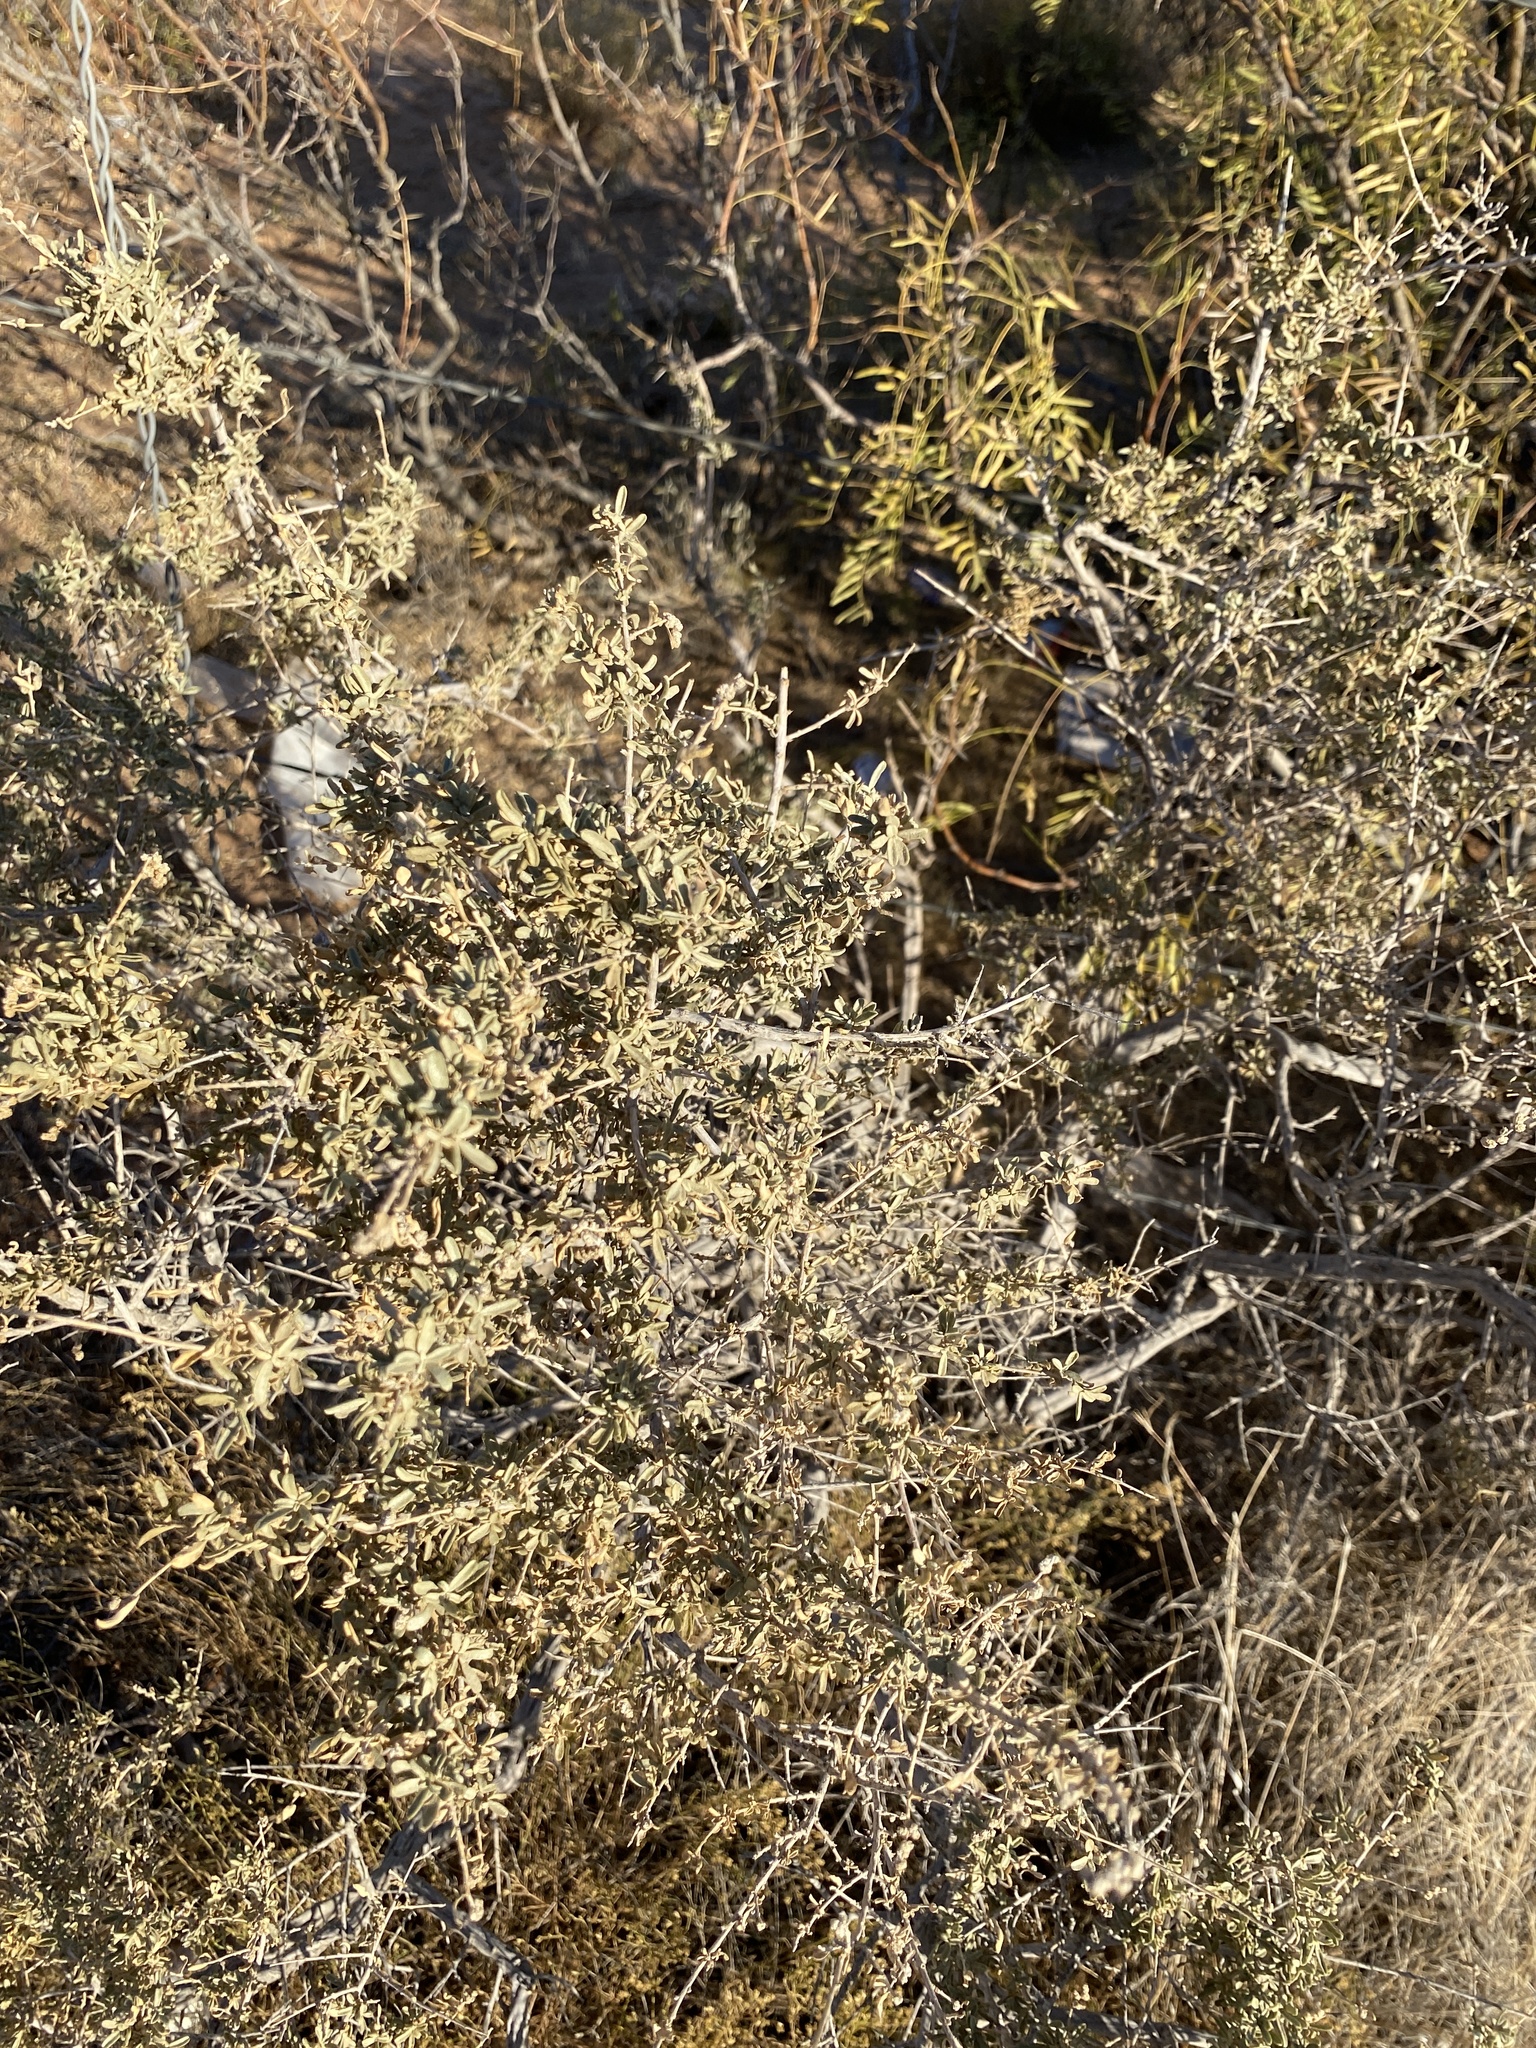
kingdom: Plantae
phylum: Tracheophyta
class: Magnoliopsida
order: Caryophyllales
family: Amaranthaceae
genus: Atriplex
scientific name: Atriplex canescens
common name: Four-wing saltbush
